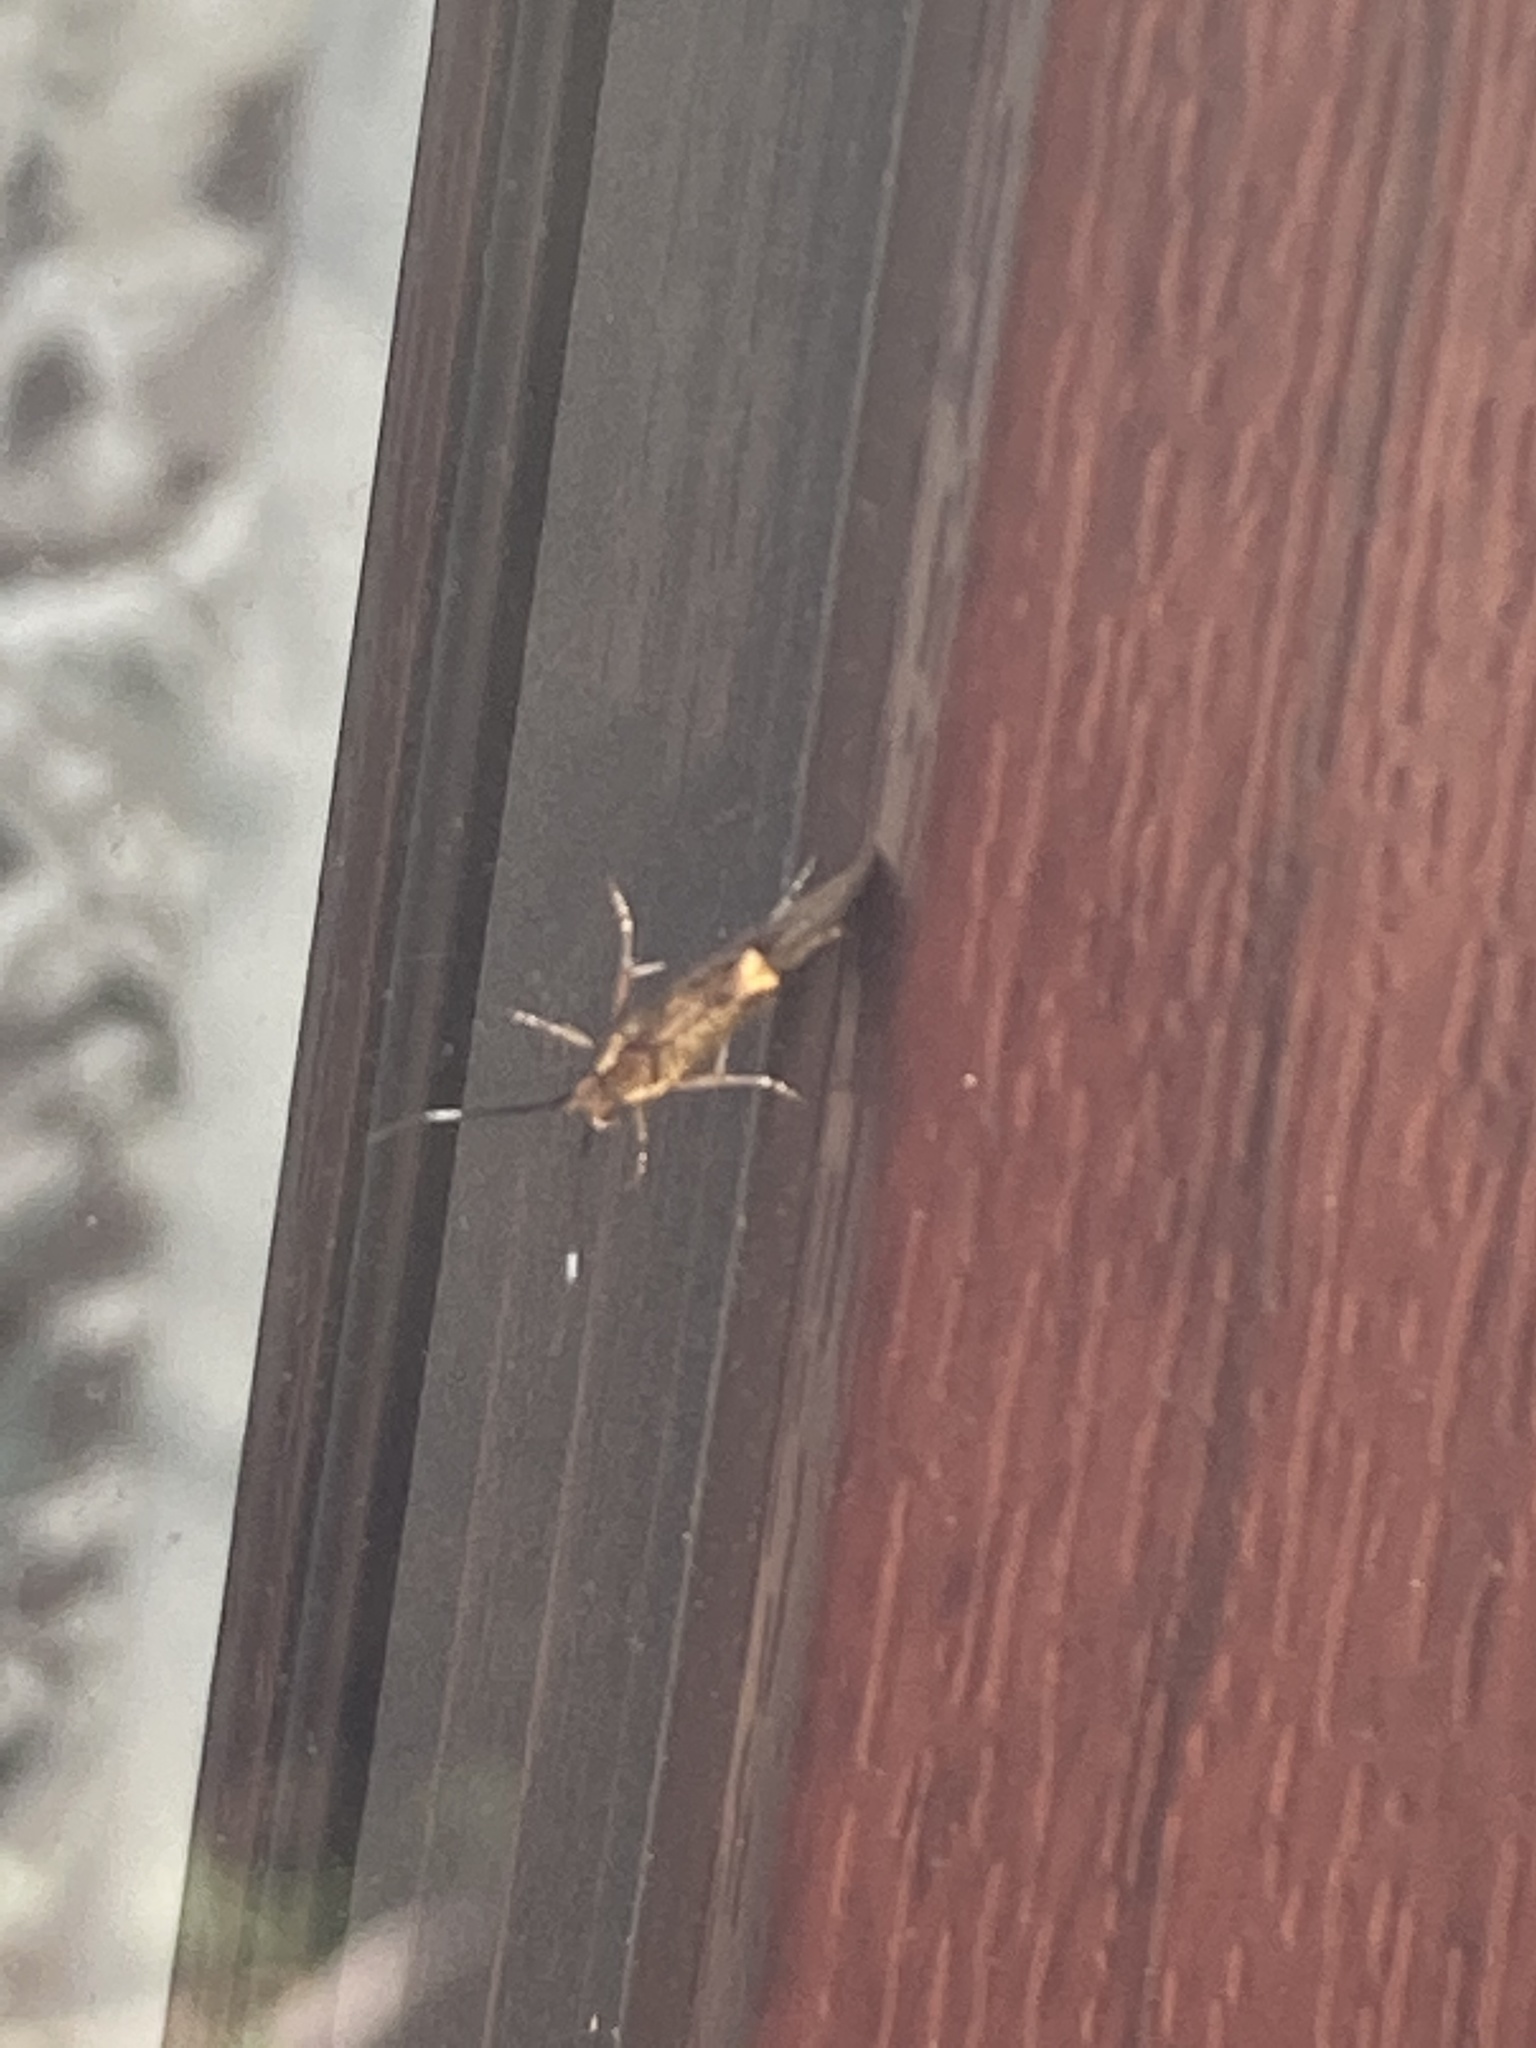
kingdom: Animalia
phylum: Arthropoda
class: Insecta
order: Lepidoptera
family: Oecophoridae
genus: Dafa
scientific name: Dafa Esperia sulphurella
